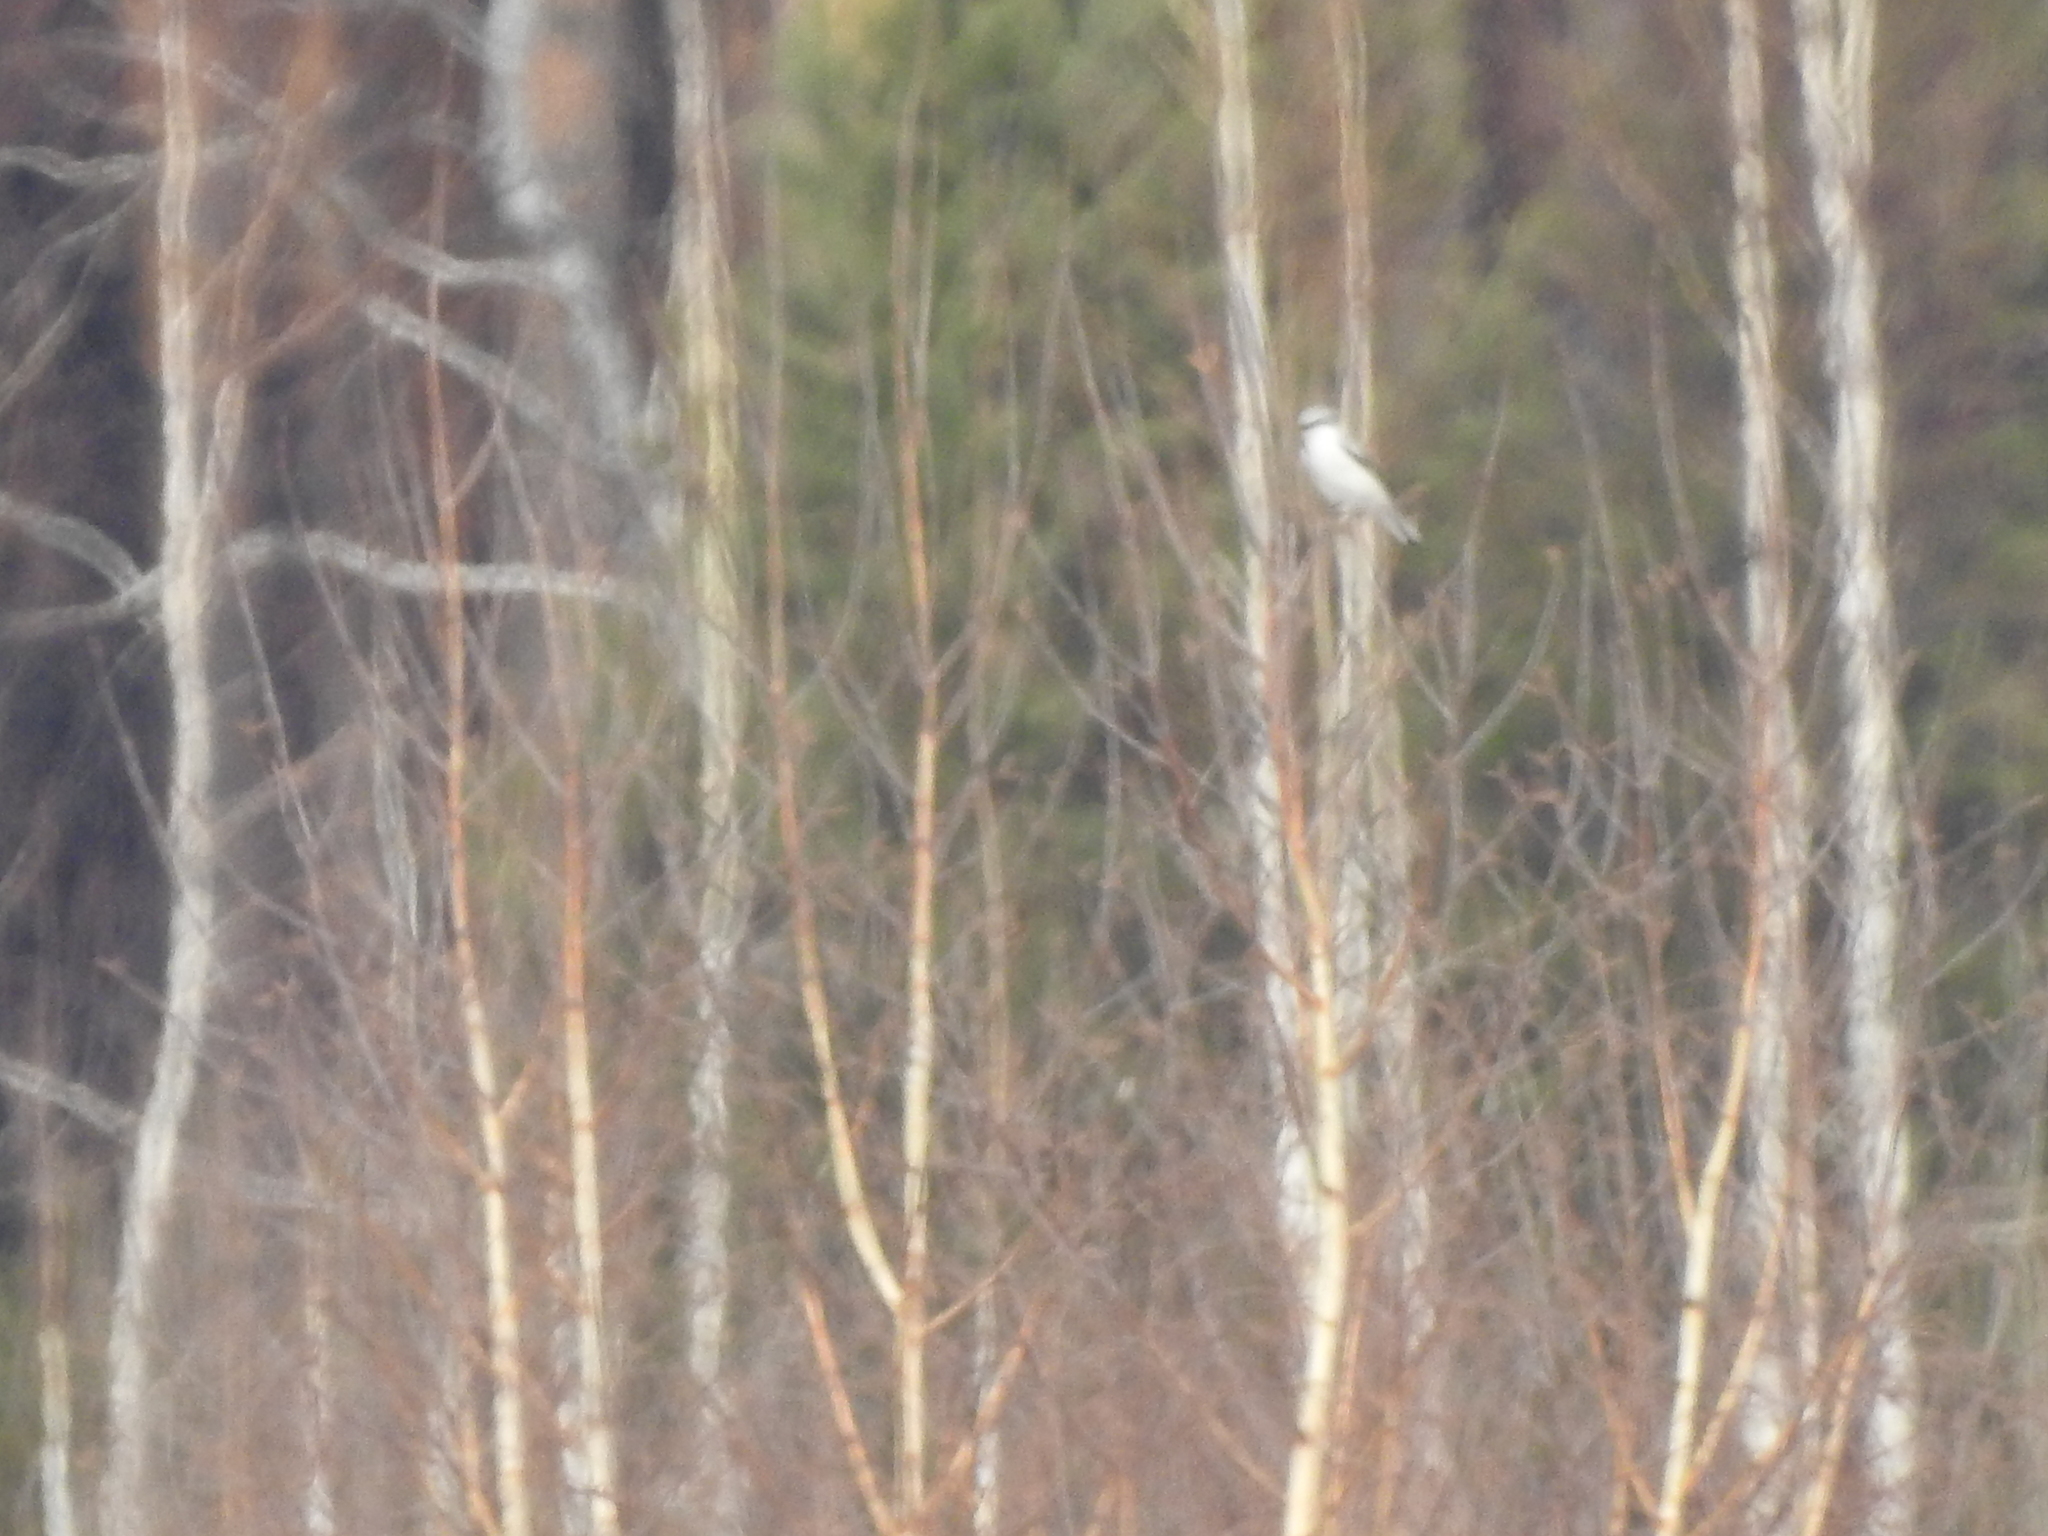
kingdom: Animalia
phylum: Chordata
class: Aves
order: Passeriformes
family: Laniidae
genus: Lanius
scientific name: Lanius excubitor
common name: Great grey shrike
